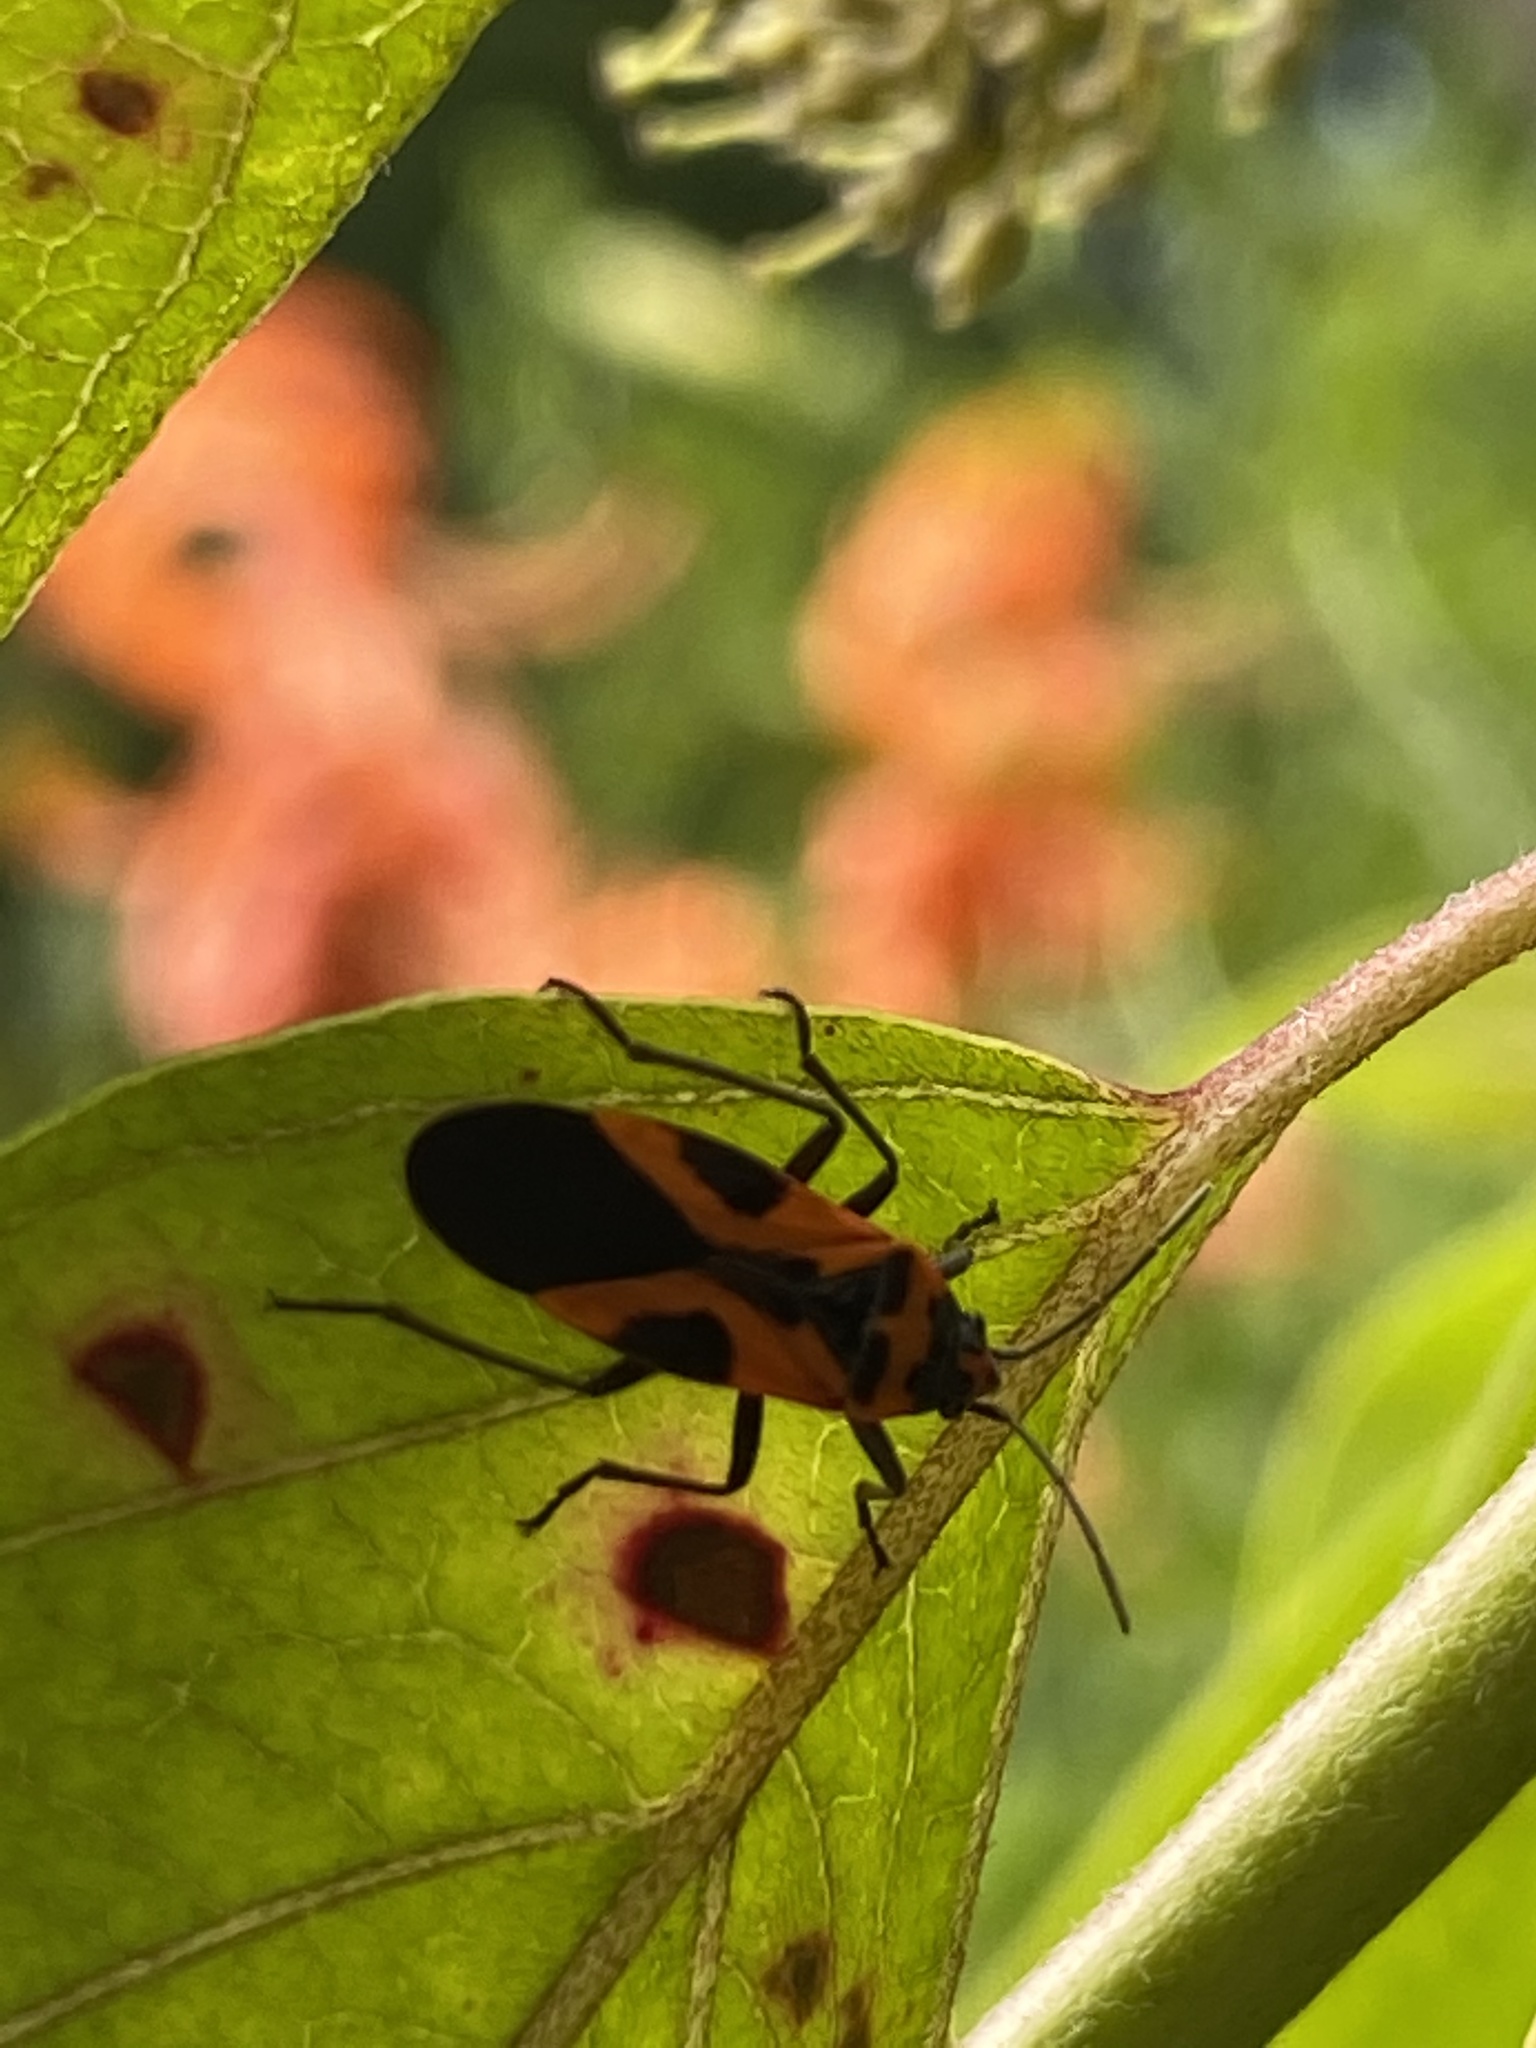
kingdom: Animalia
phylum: Arthropoda
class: Insecta
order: Hemiptera
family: Lygaeidae
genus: Lygaeus
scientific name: Lygaeus turcicus
